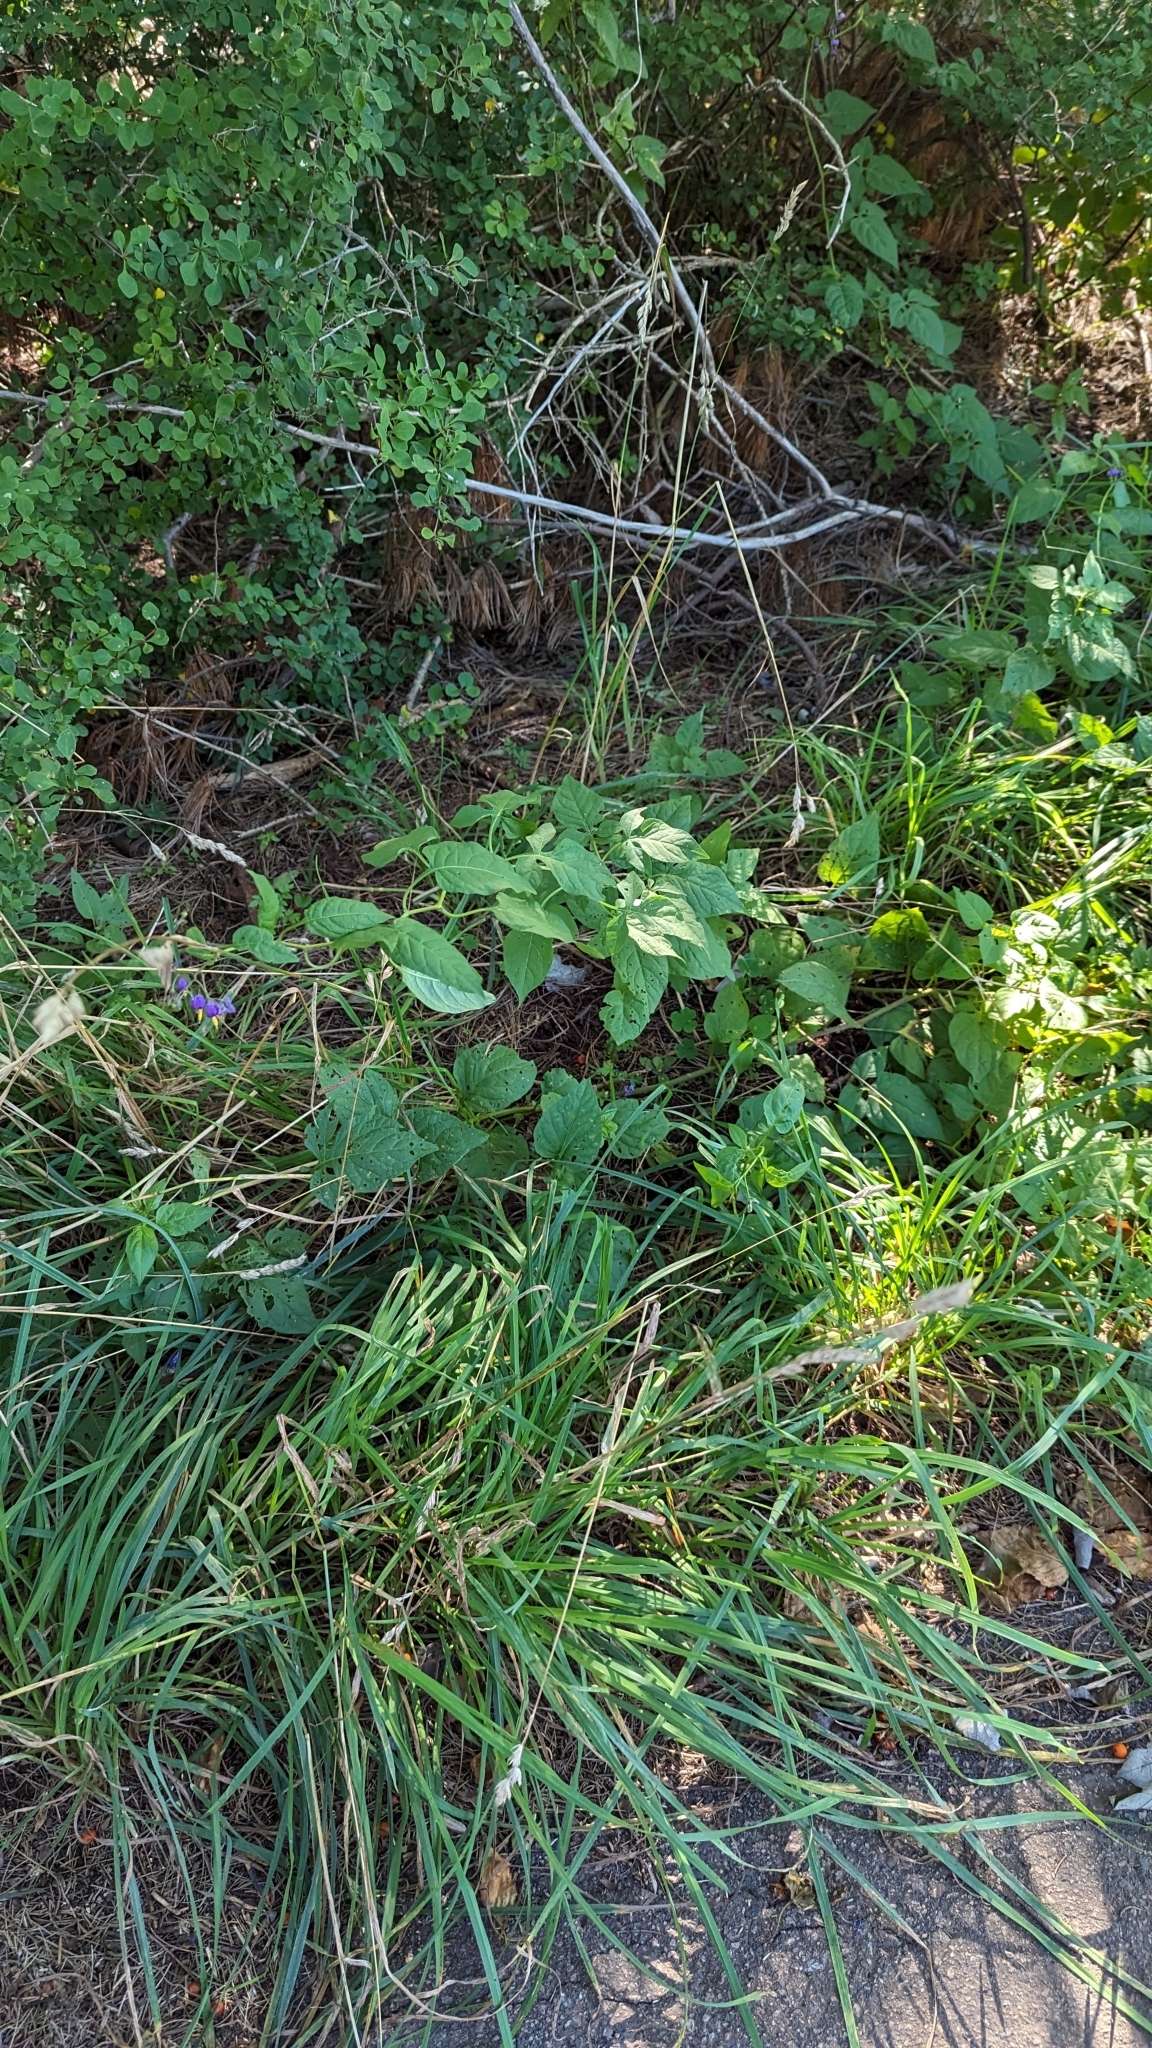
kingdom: Plantae
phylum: Tracheophyta
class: Magnoliopsida
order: Solanales
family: Solanaceae
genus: Solanum
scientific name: Solanum dulcamara
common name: Climbing nightshade
